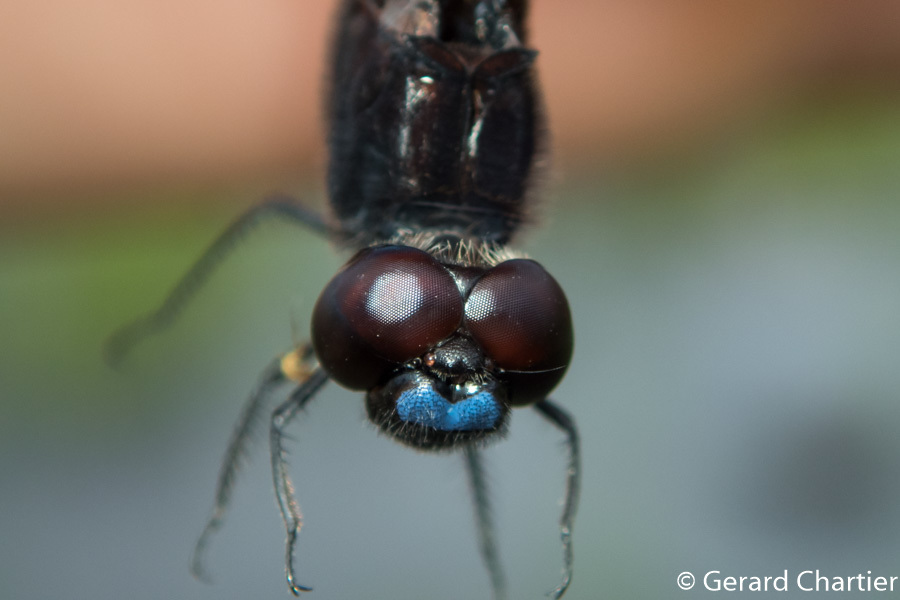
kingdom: Animalia
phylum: Arthropoda
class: Insecta
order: Odonata
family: Libellulidae
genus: Indothemis
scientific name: Indothemis limbata
